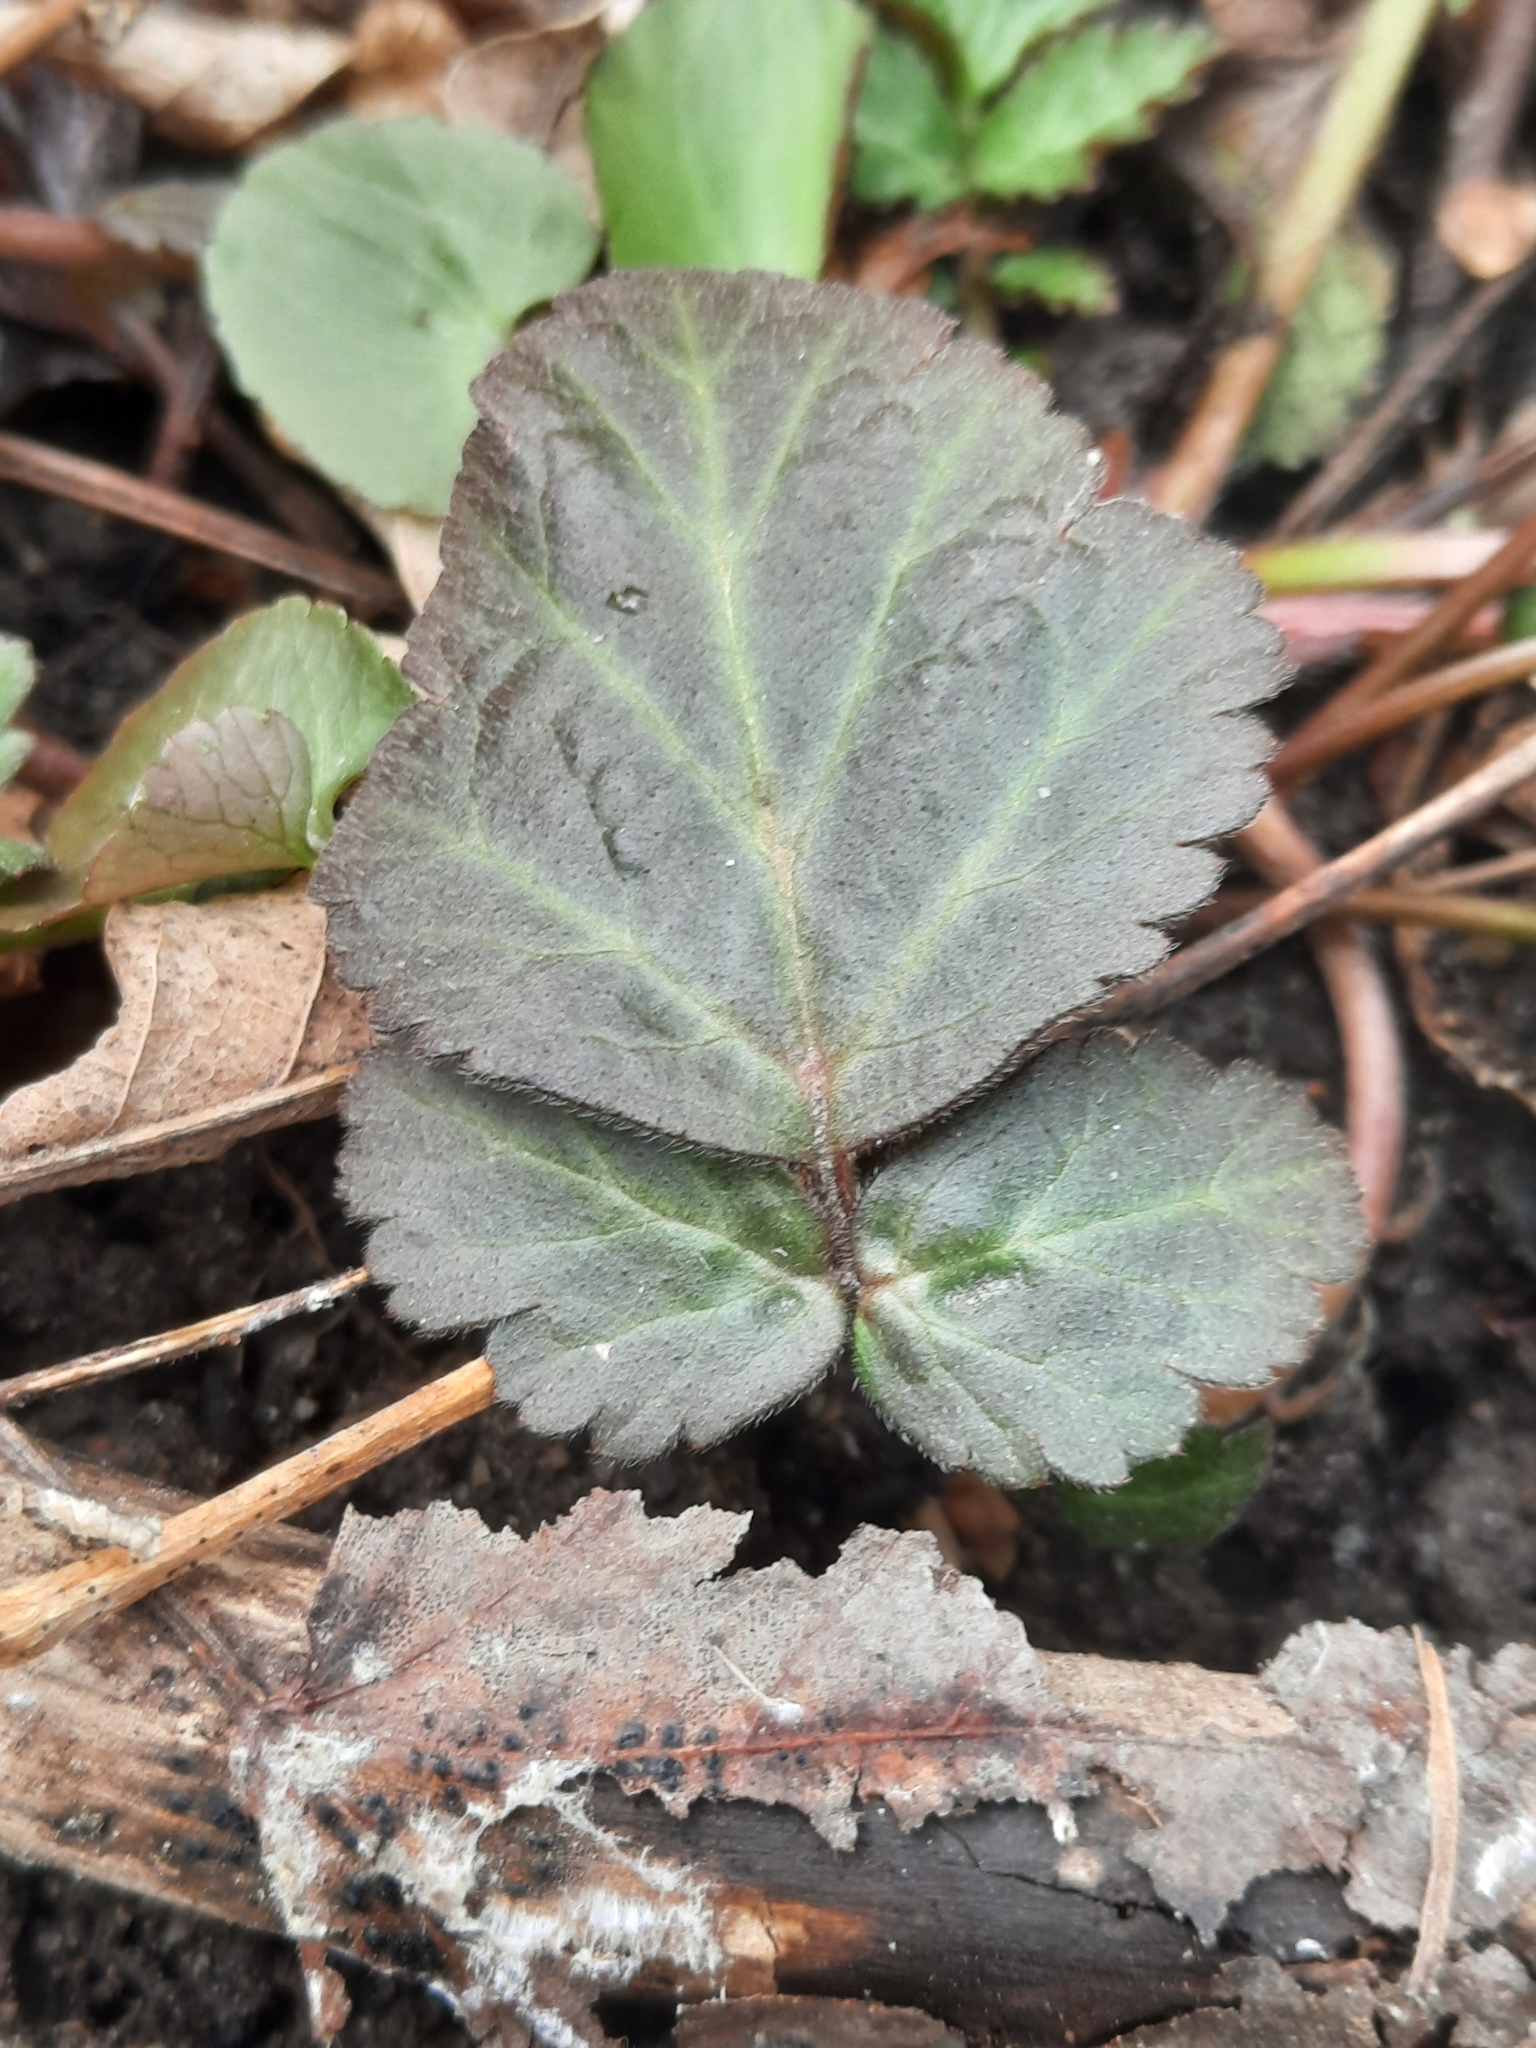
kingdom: Plantae
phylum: Tracheophyta
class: Magnoliopsida
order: Rosales
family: Rosaceae
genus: Geum
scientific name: Geum canadense
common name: White avens
